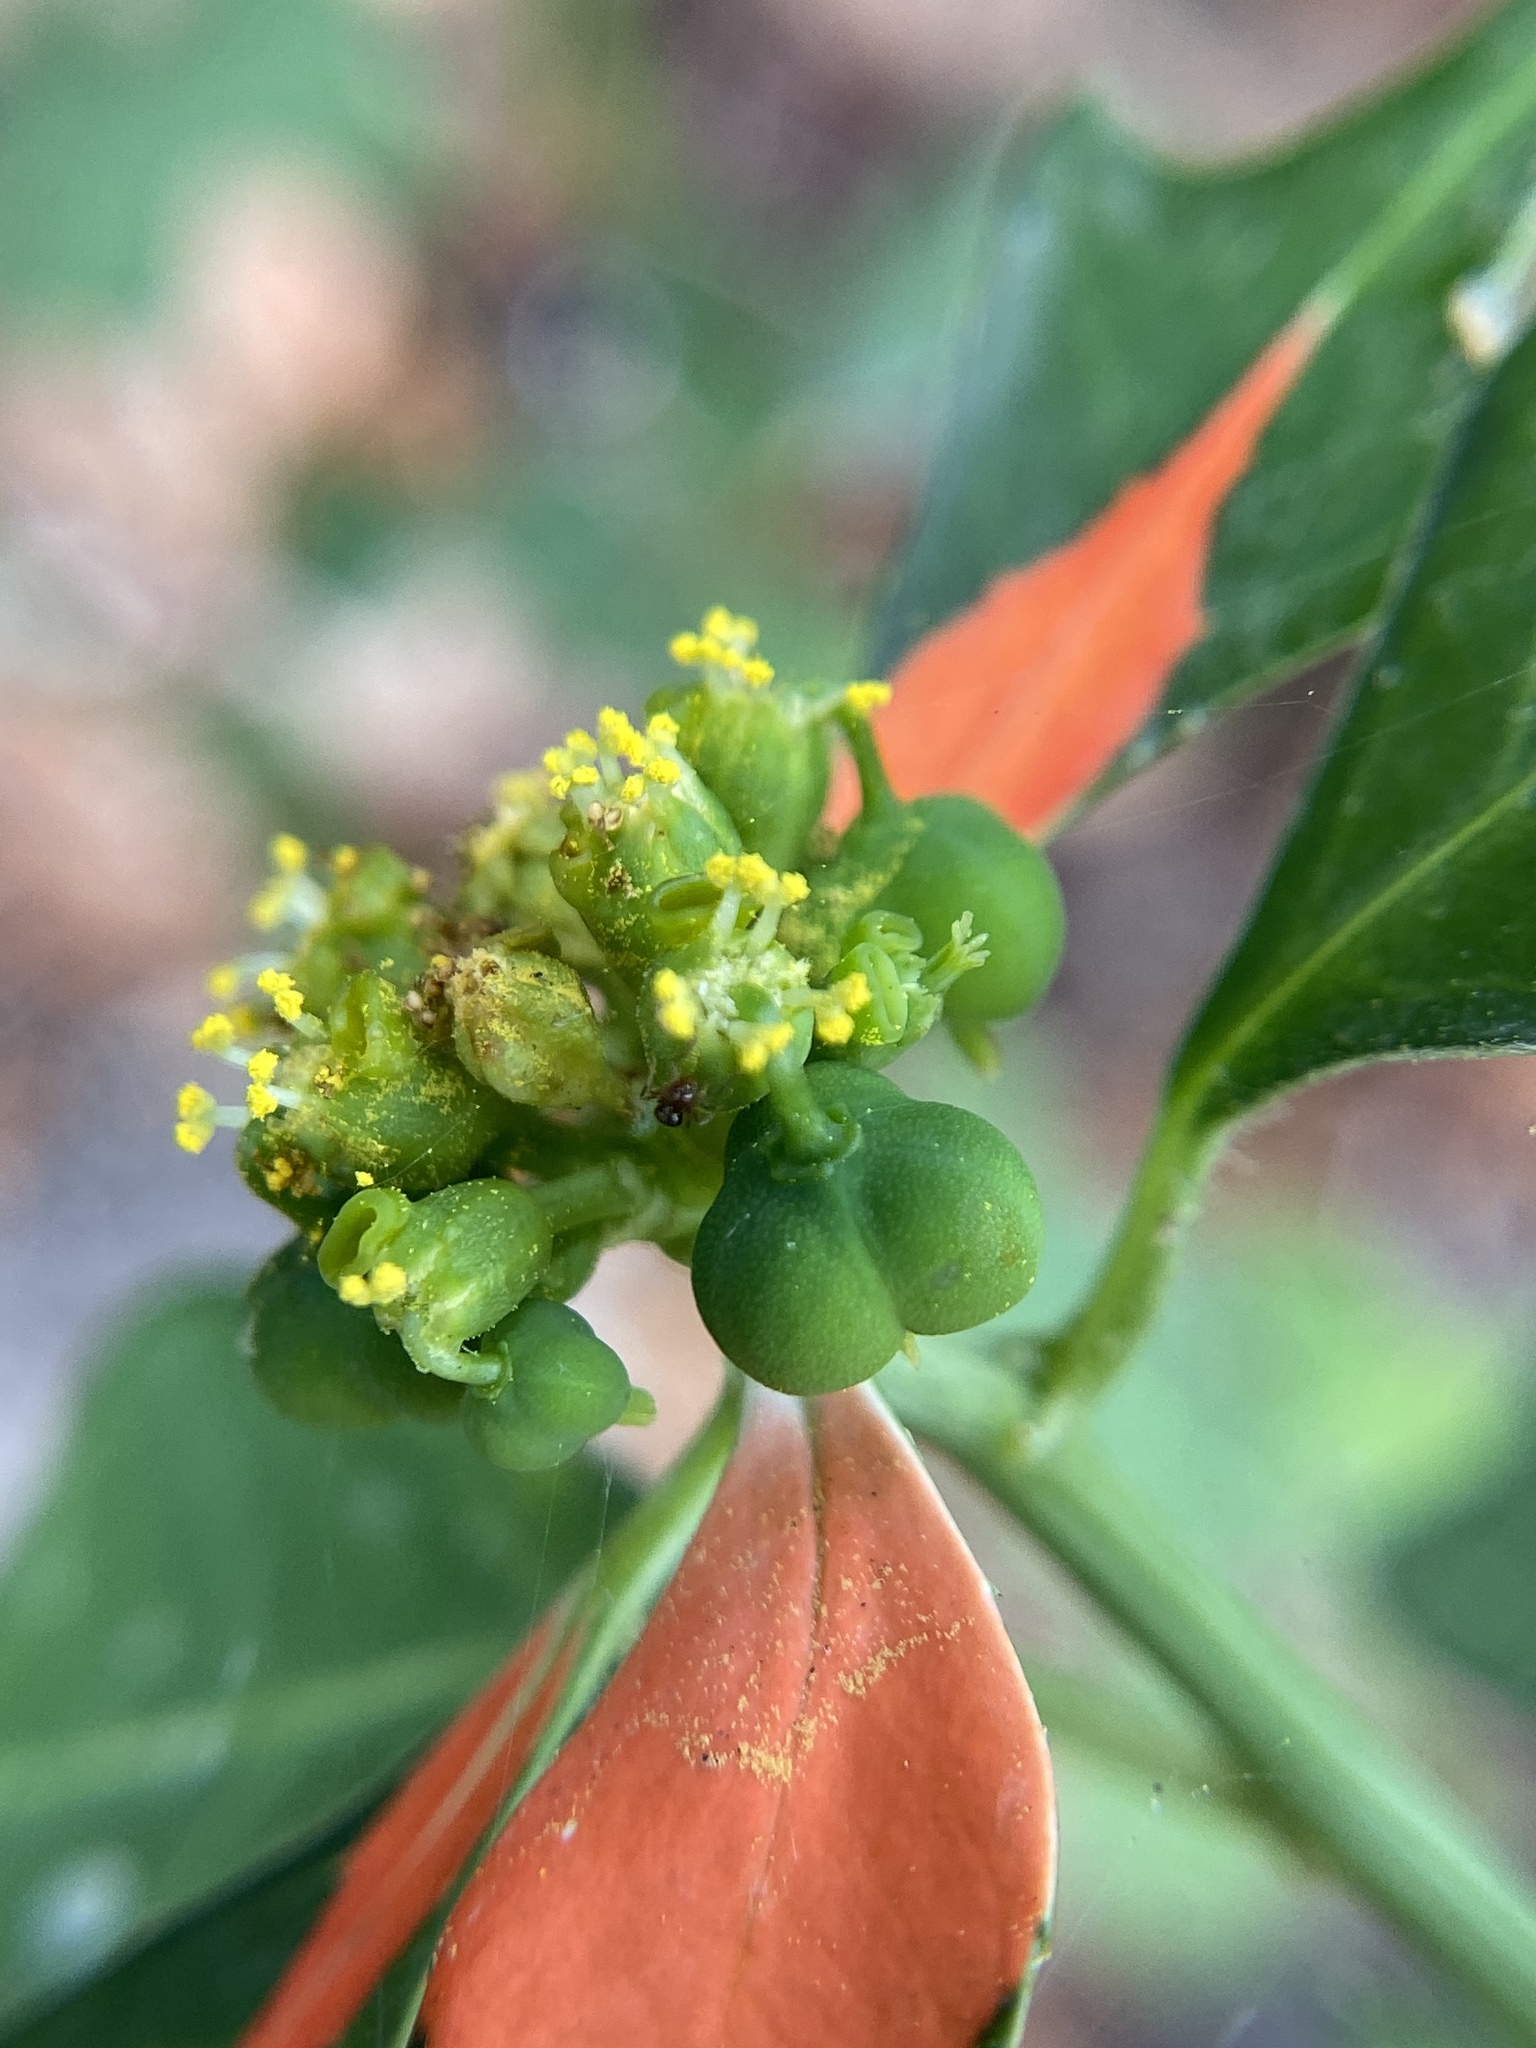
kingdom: Plantae
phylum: Tracheophyta
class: Magnoliopsida
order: Malpighiales
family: Euphorbiaceae
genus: Euphorbia
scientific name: Euphorbia heterophylla
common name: Mexican fireplant
